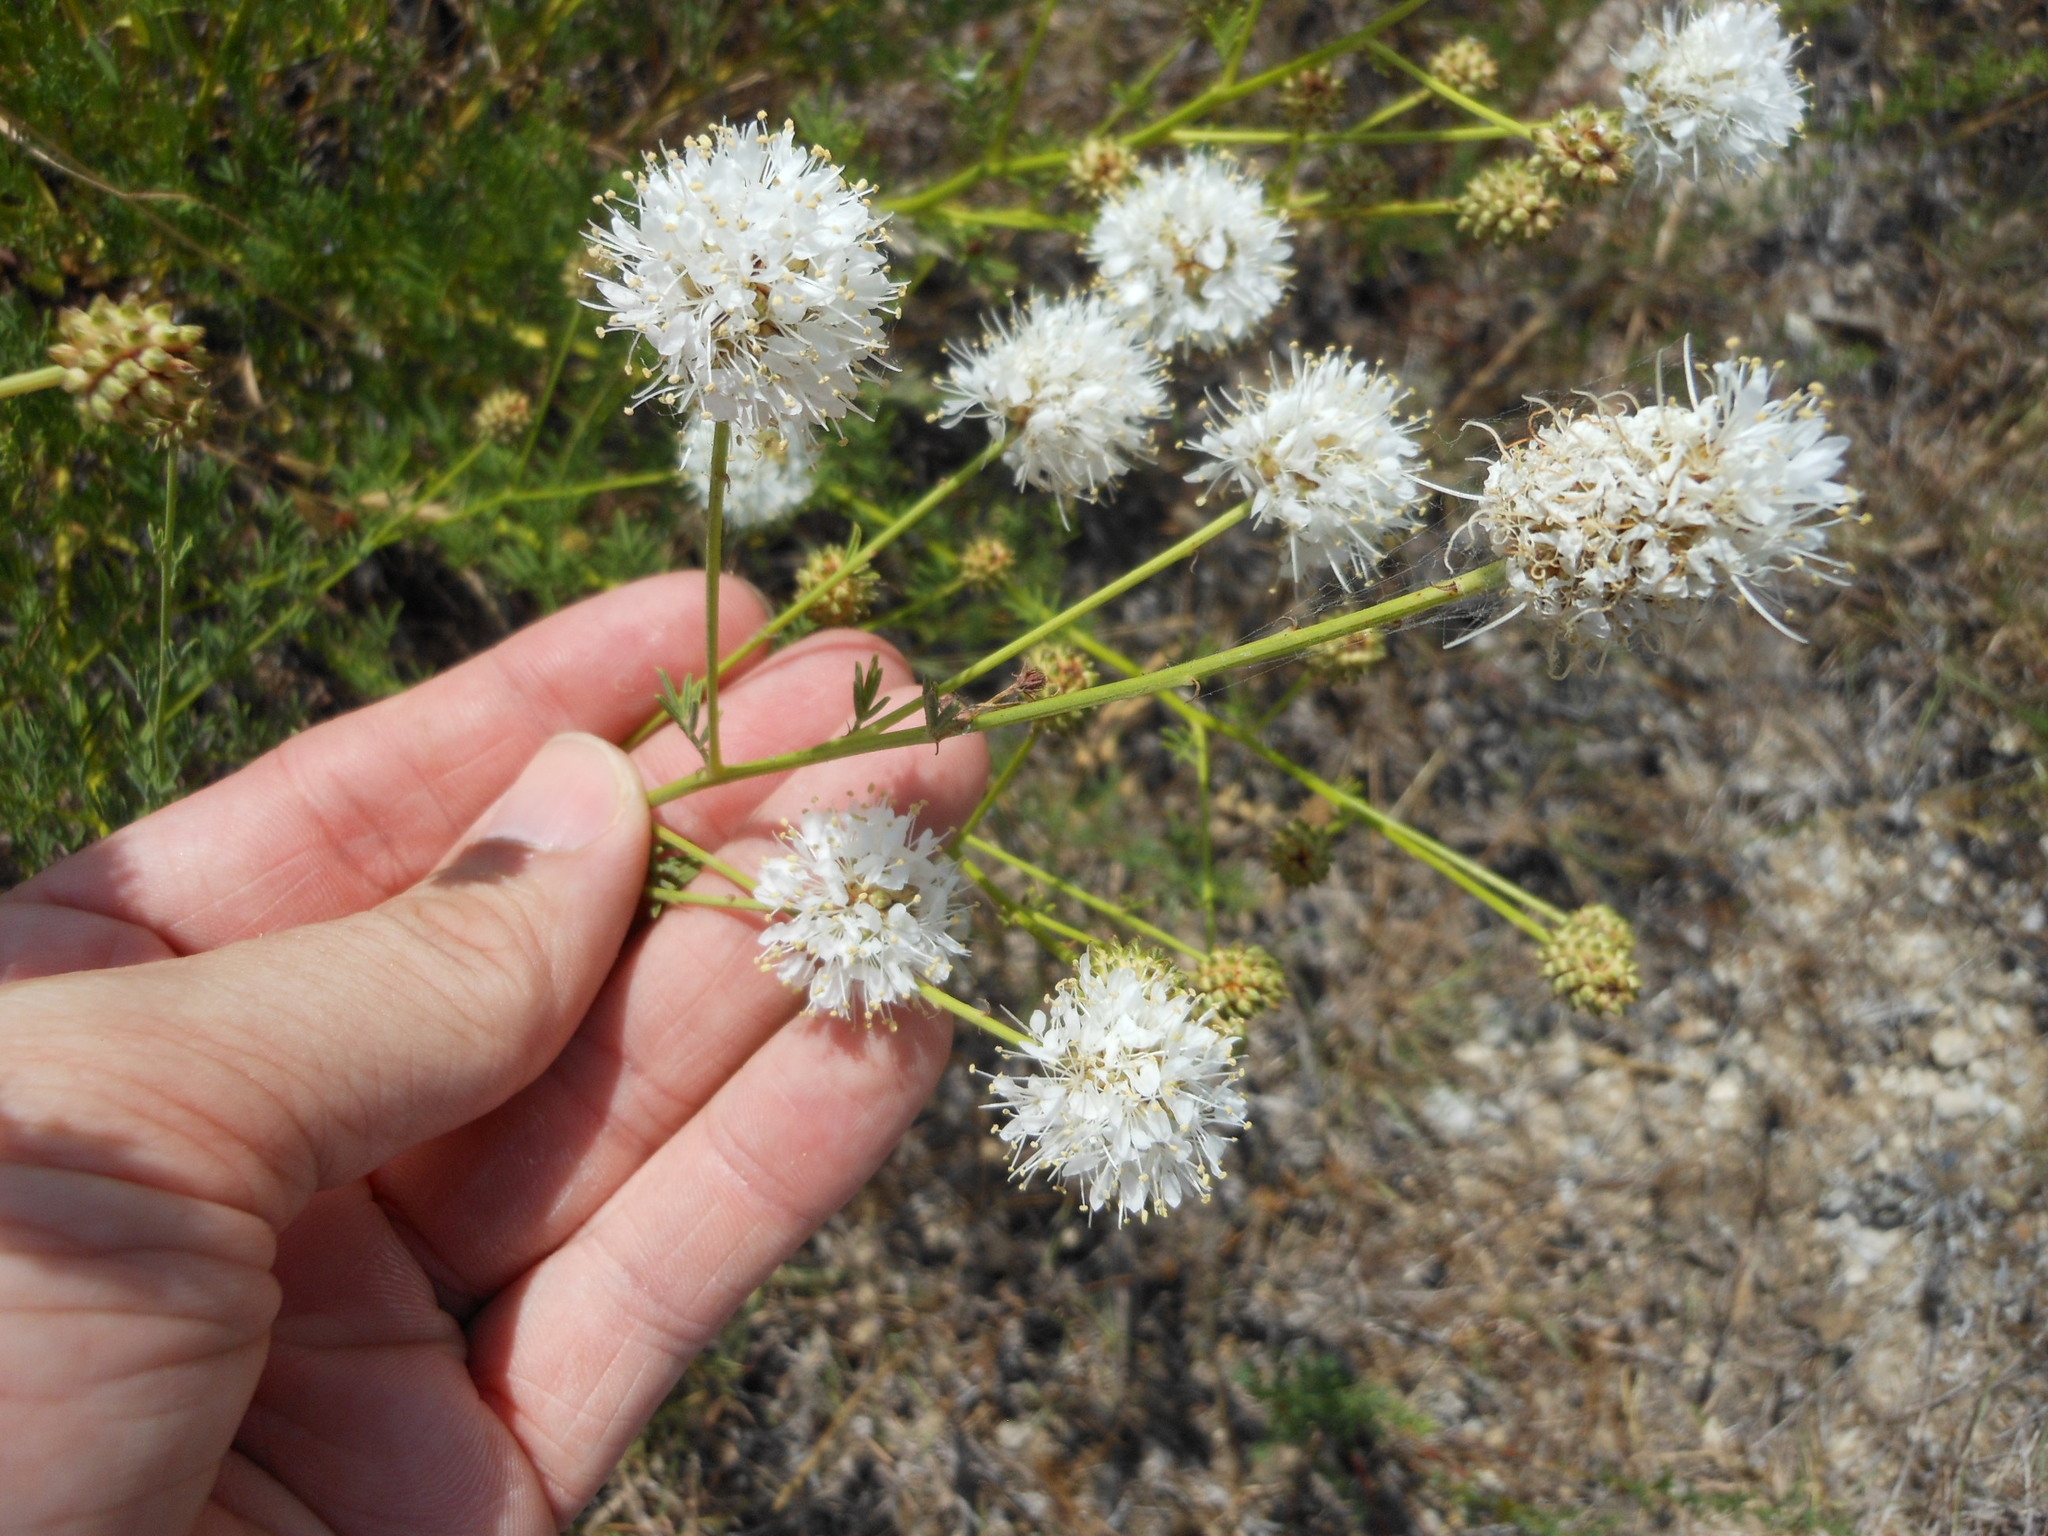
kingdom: Plantae
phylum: Tracheophyta
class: Magnoliopsida
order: Fabales
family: Fabaceae
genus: Dalea
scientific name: Dalea multiflora
